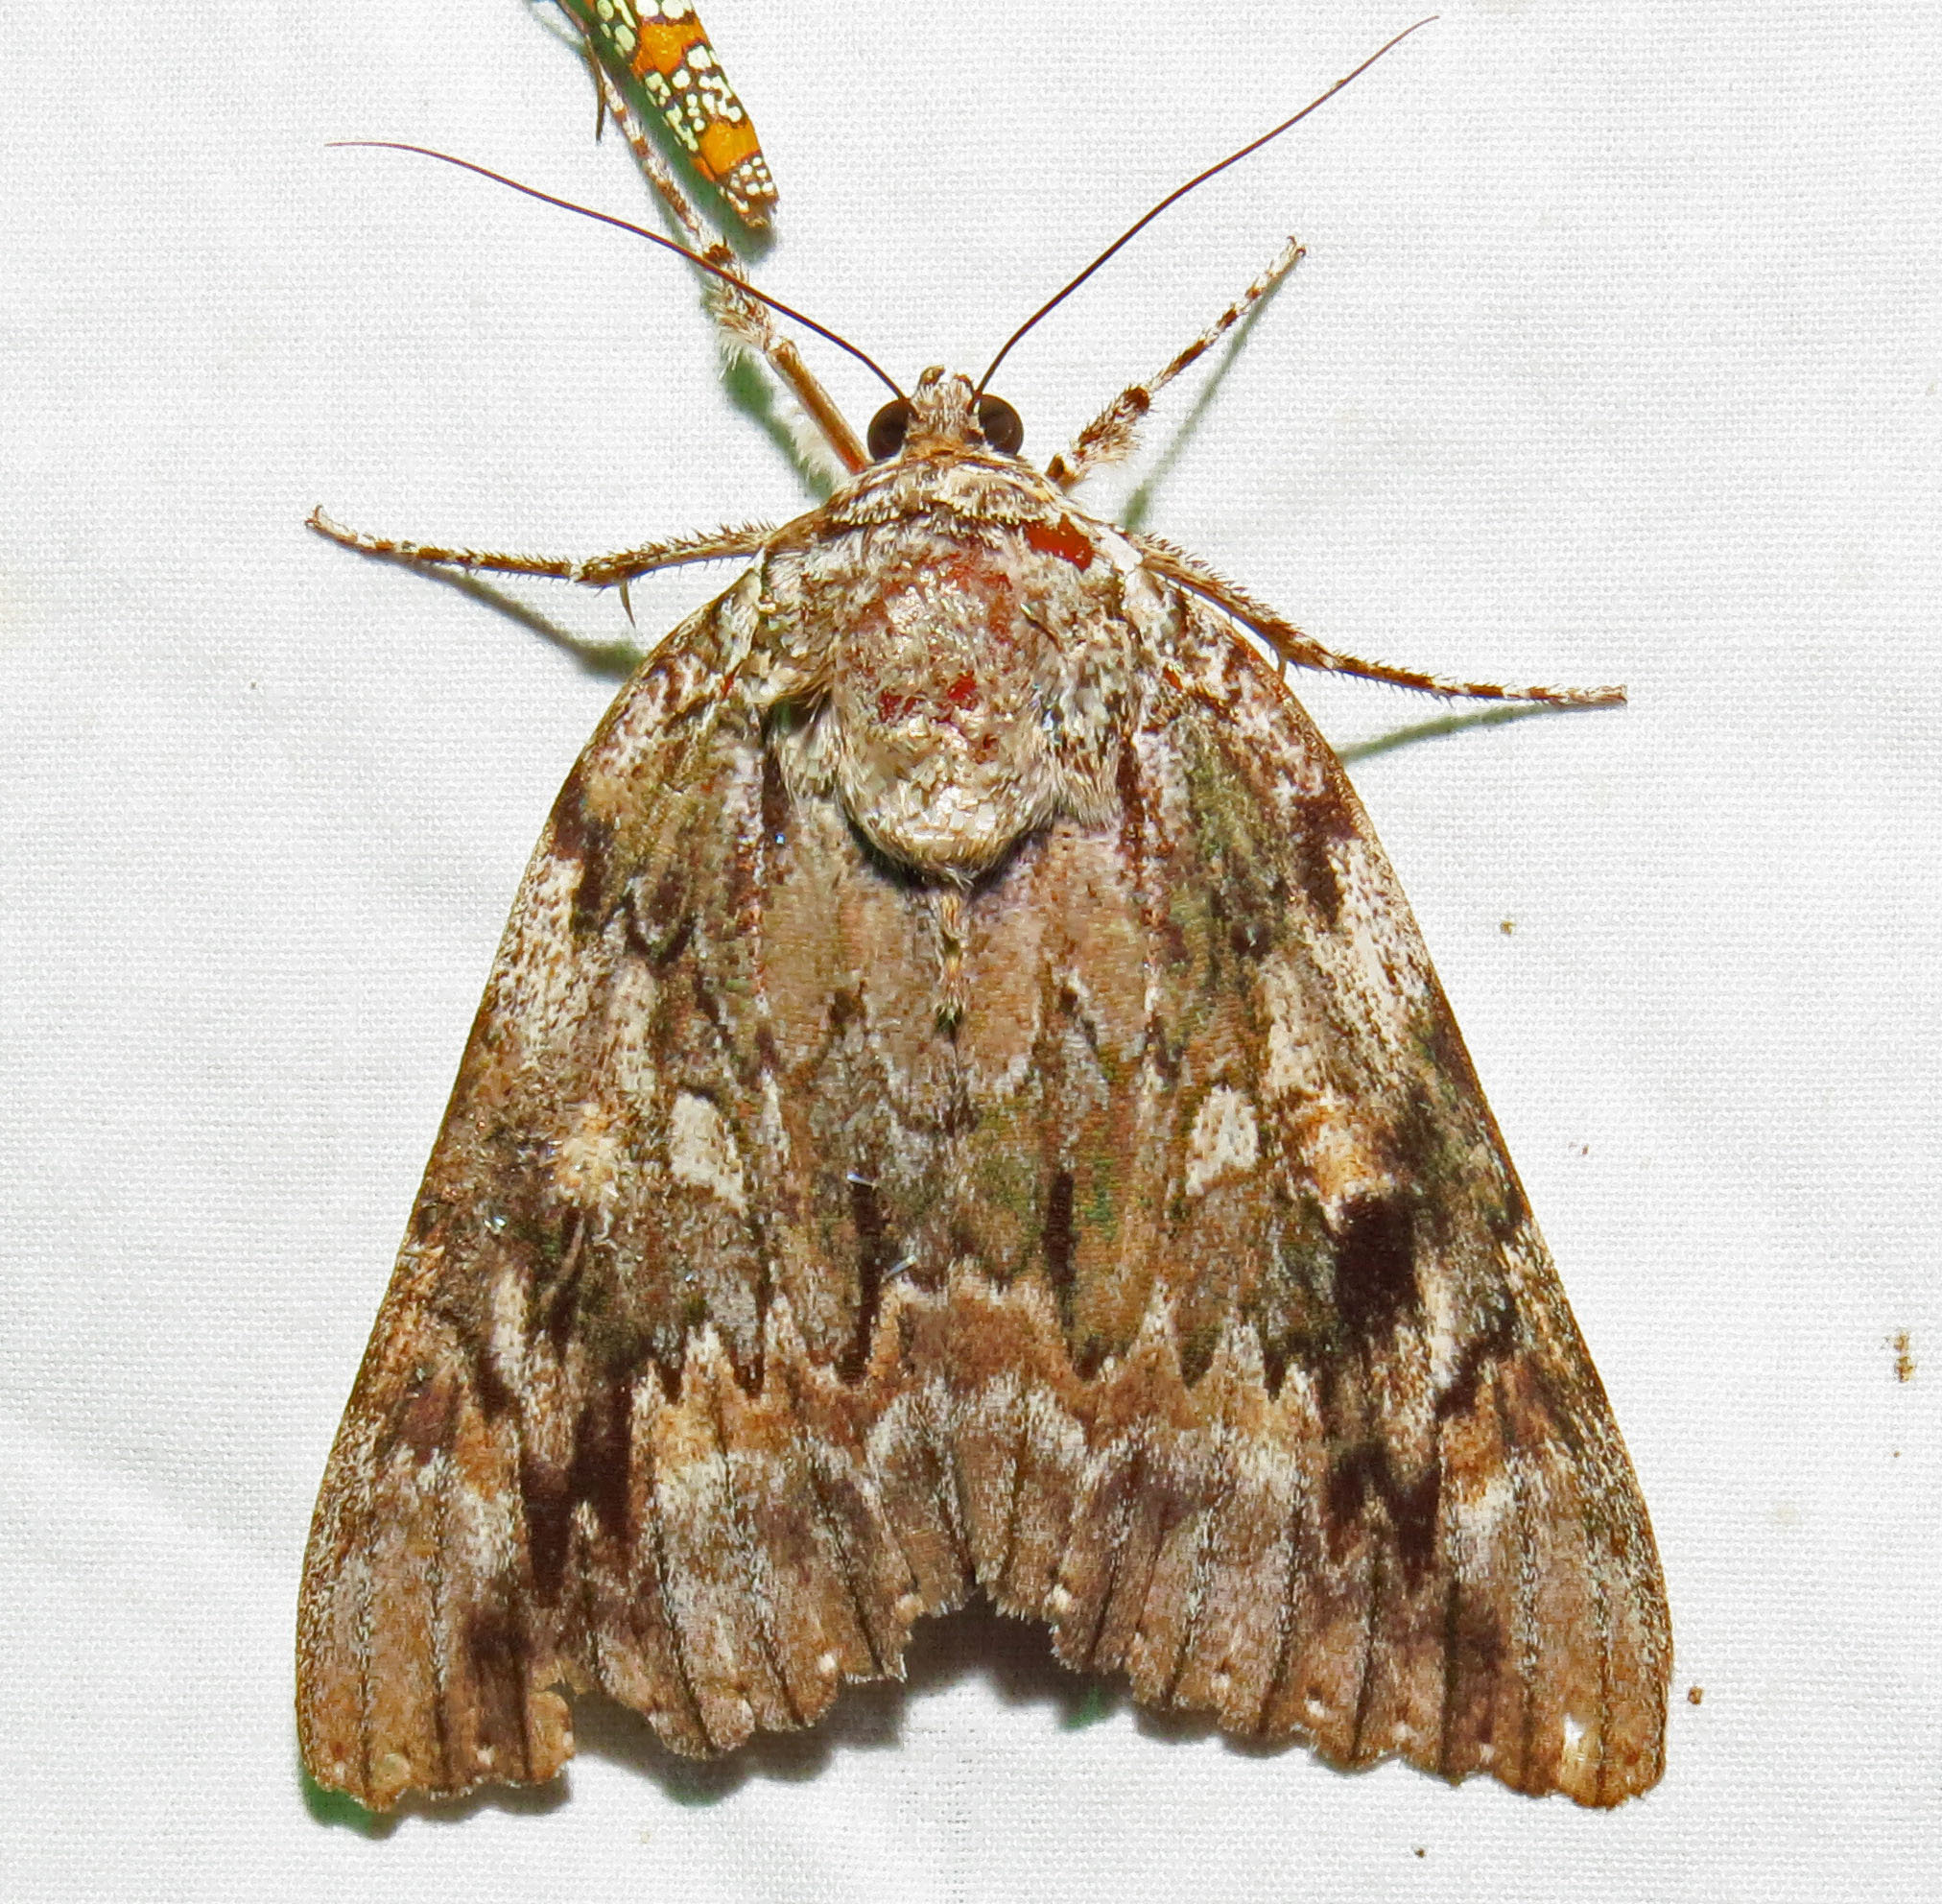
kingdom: Animalia
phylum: Arthropoda
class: Insecta
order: Lepidoptera
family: Erebidae
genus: Catocala
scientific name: Catocala maestosa
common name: Sad underwing
